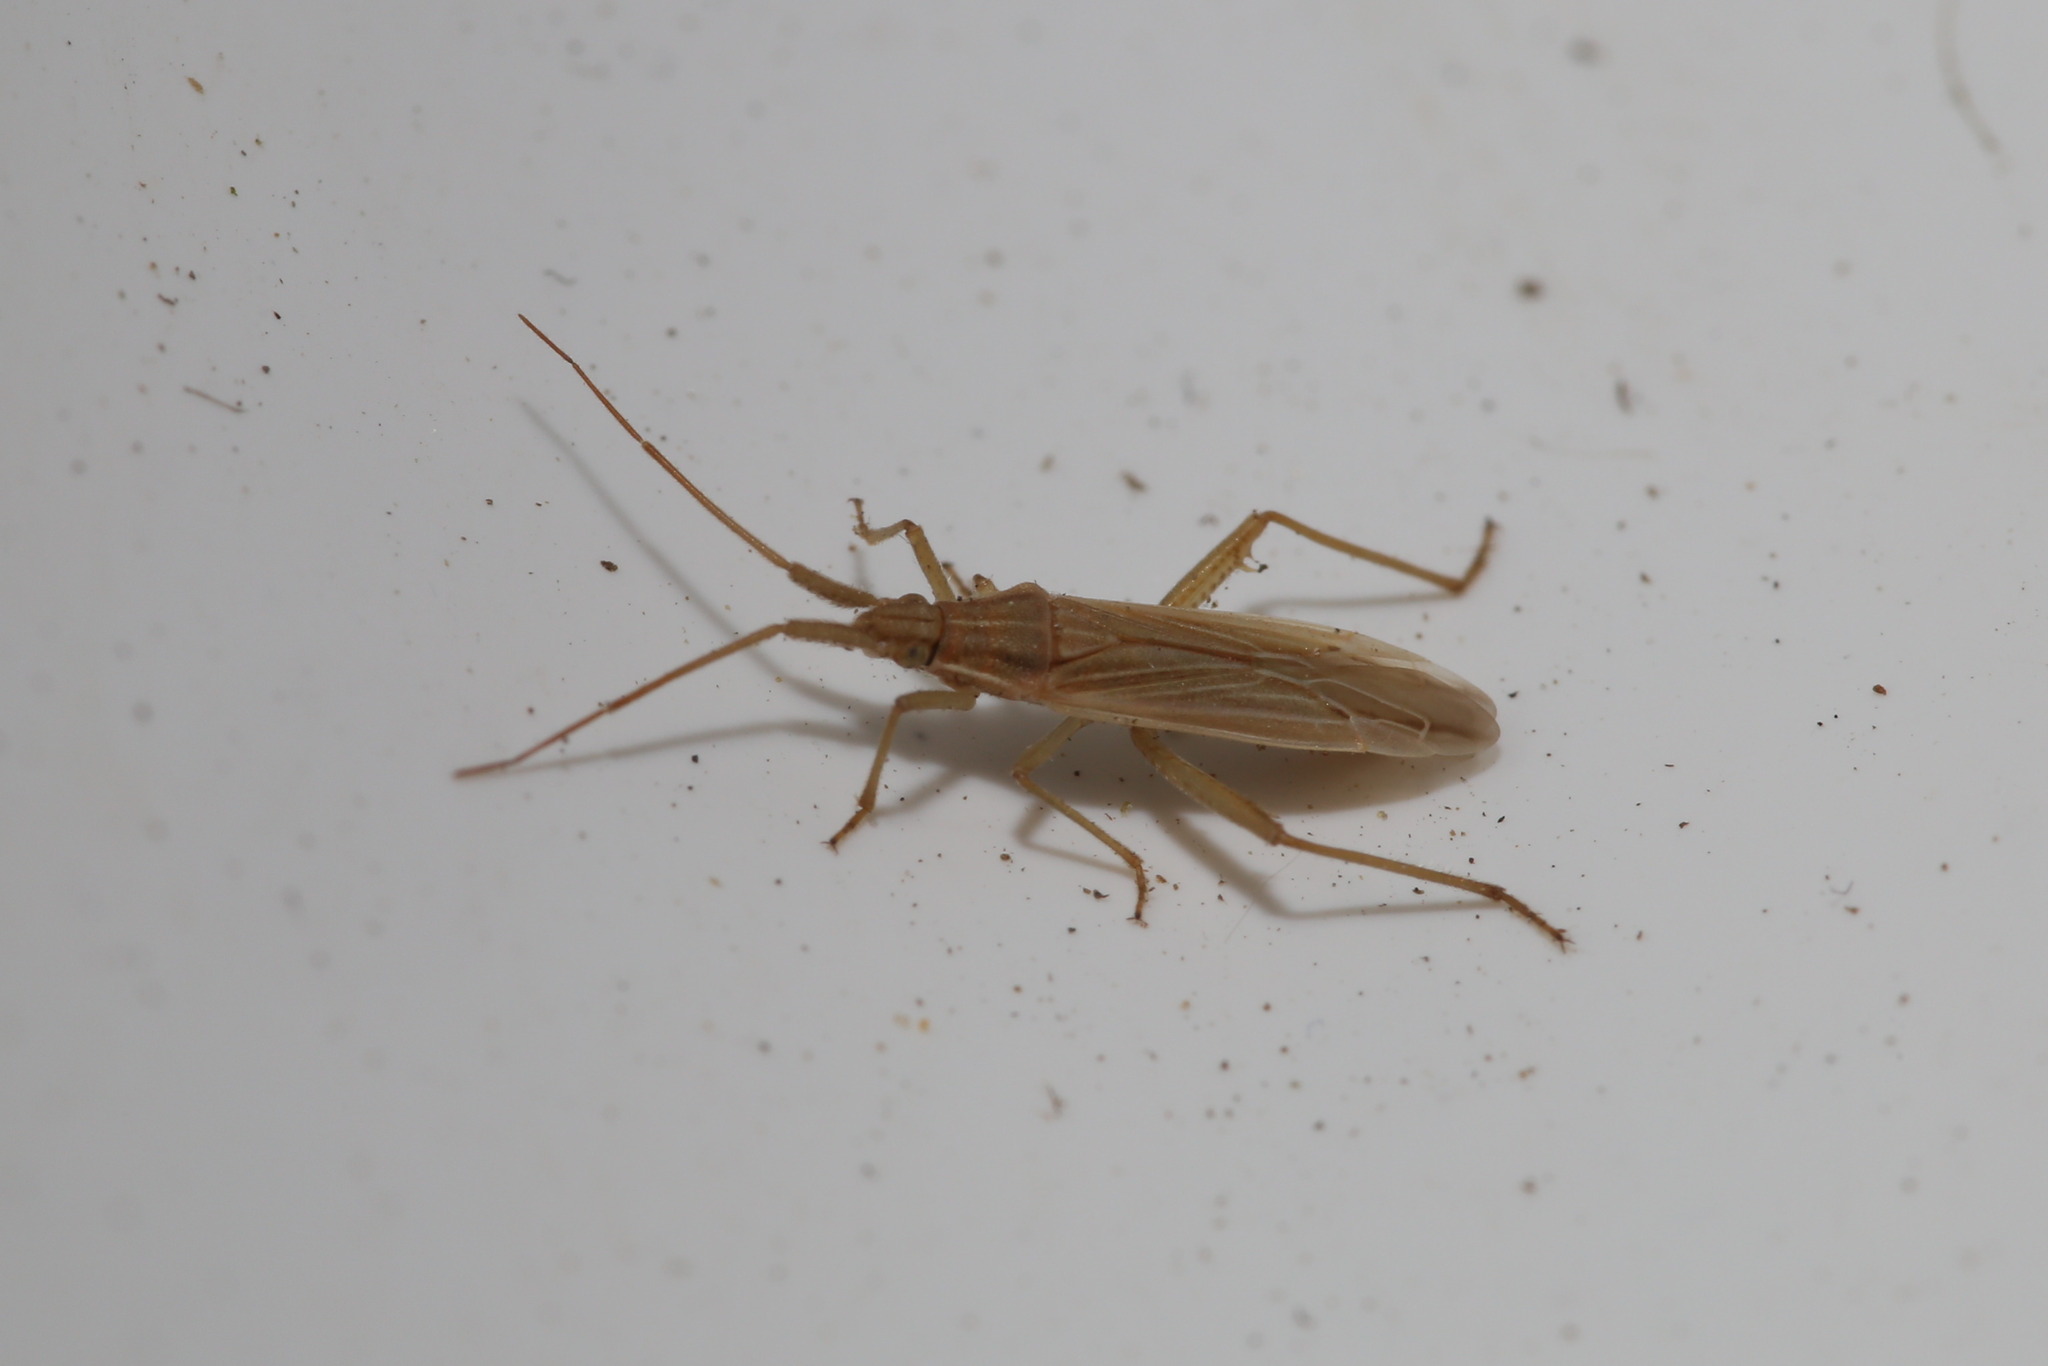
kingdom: Animalia
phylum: Arthropoda
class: Insecta
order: Hemiptera
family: Miridae
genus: Stenodema
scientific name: Stenodema calcarata
